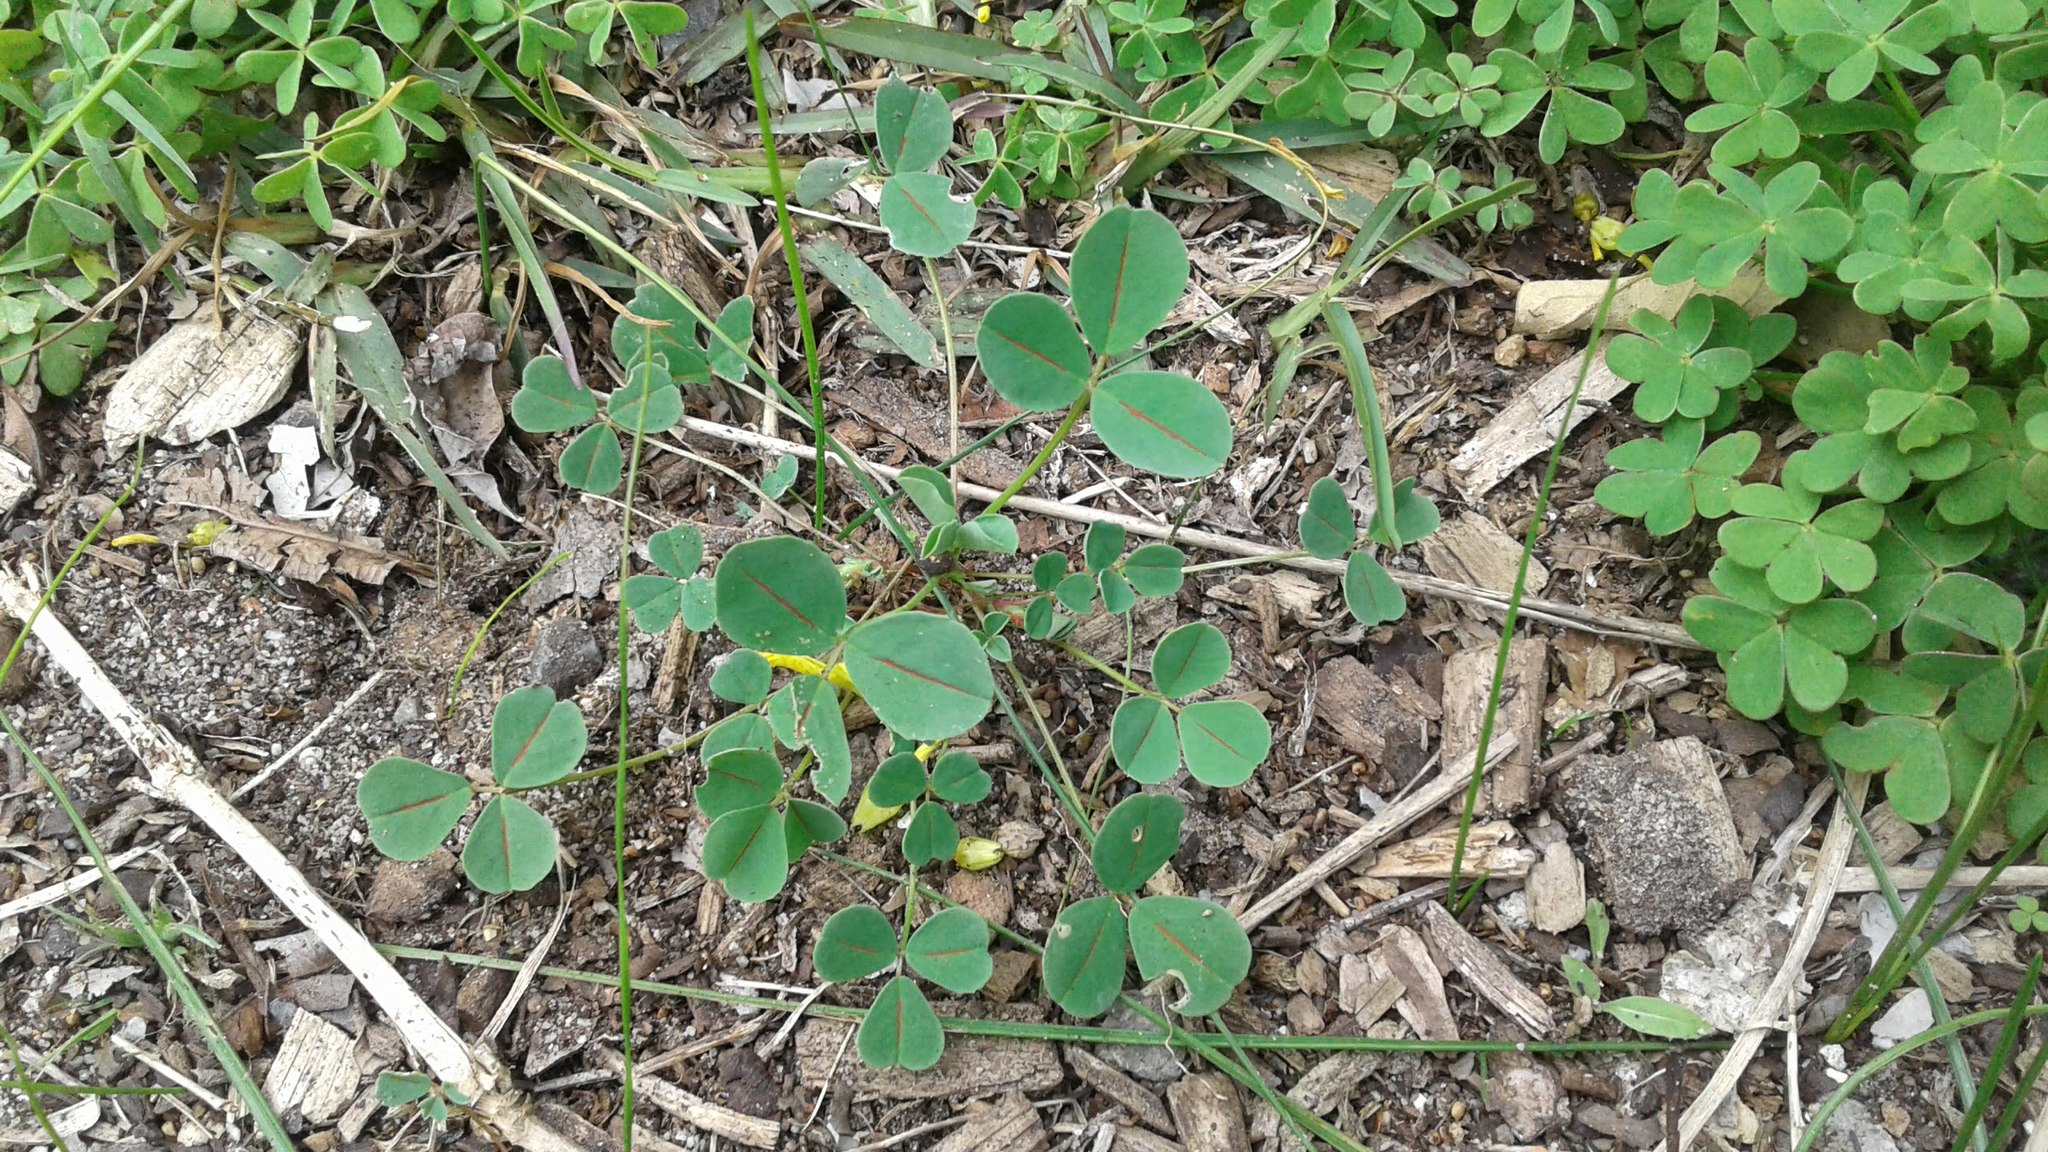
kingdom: Plantae
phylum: Tracheophyta
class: Magnoliopsida
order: Fabales
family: Fabaceae
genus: Melilotus
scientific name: Melilotus indicus
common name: Small melilot
